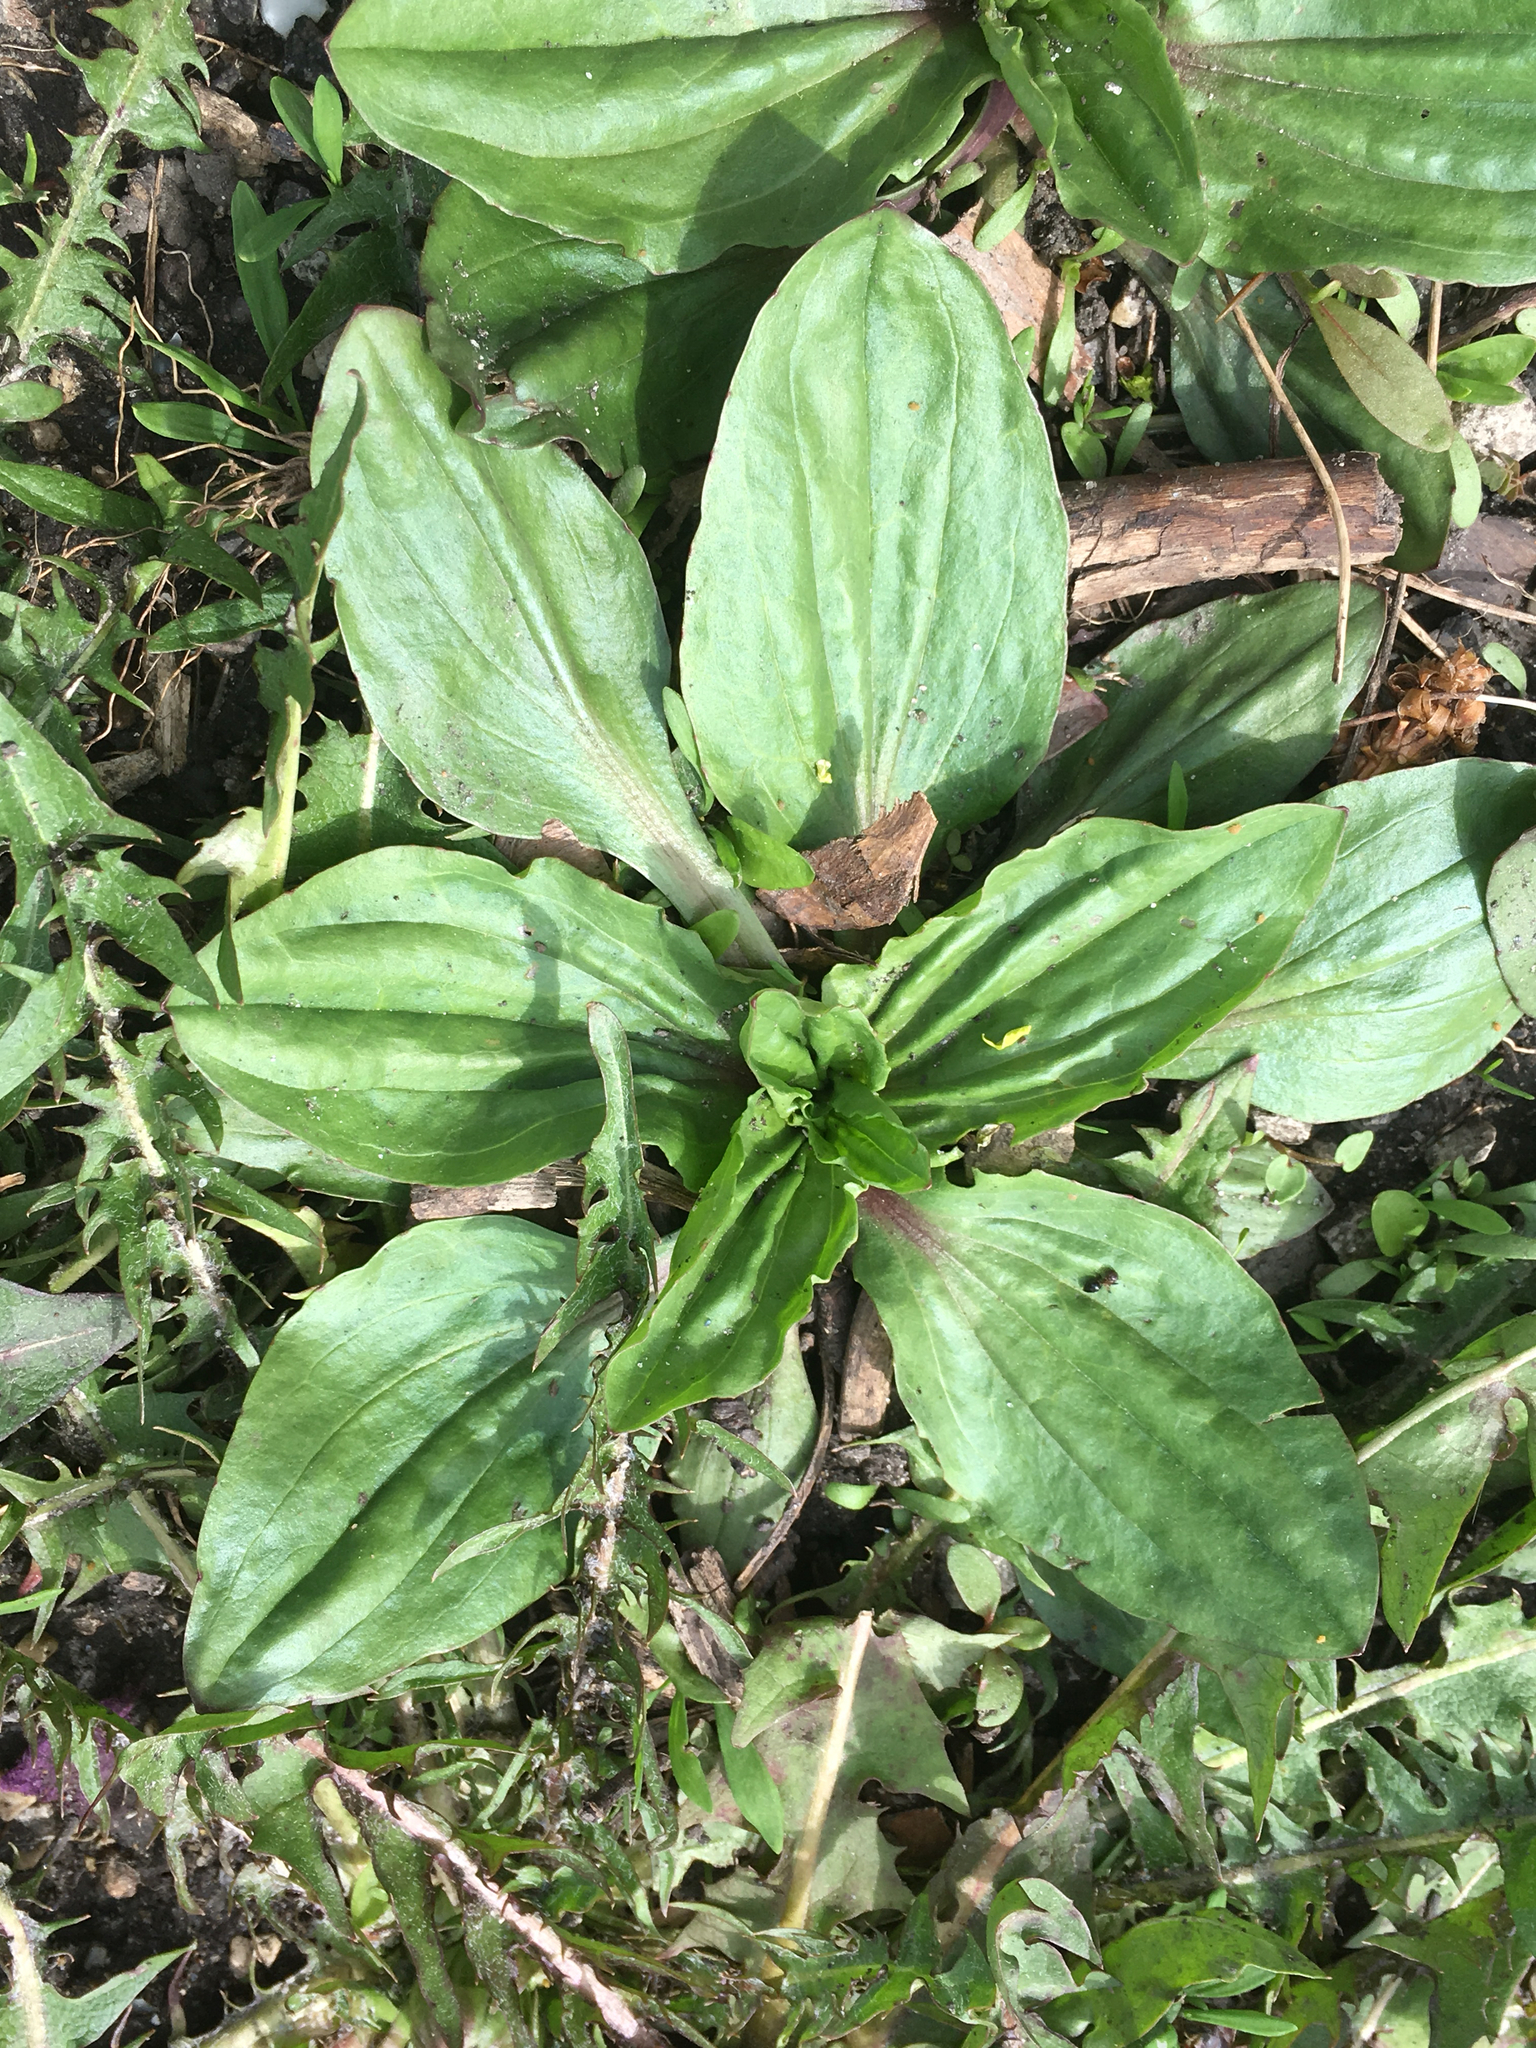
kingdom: Plantae
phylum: Tracheophyta
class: Magnoliopsida
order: Lamiales
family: Plantaginaceae
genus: Plantago
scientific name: Plantago rugelii
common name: American plantain
